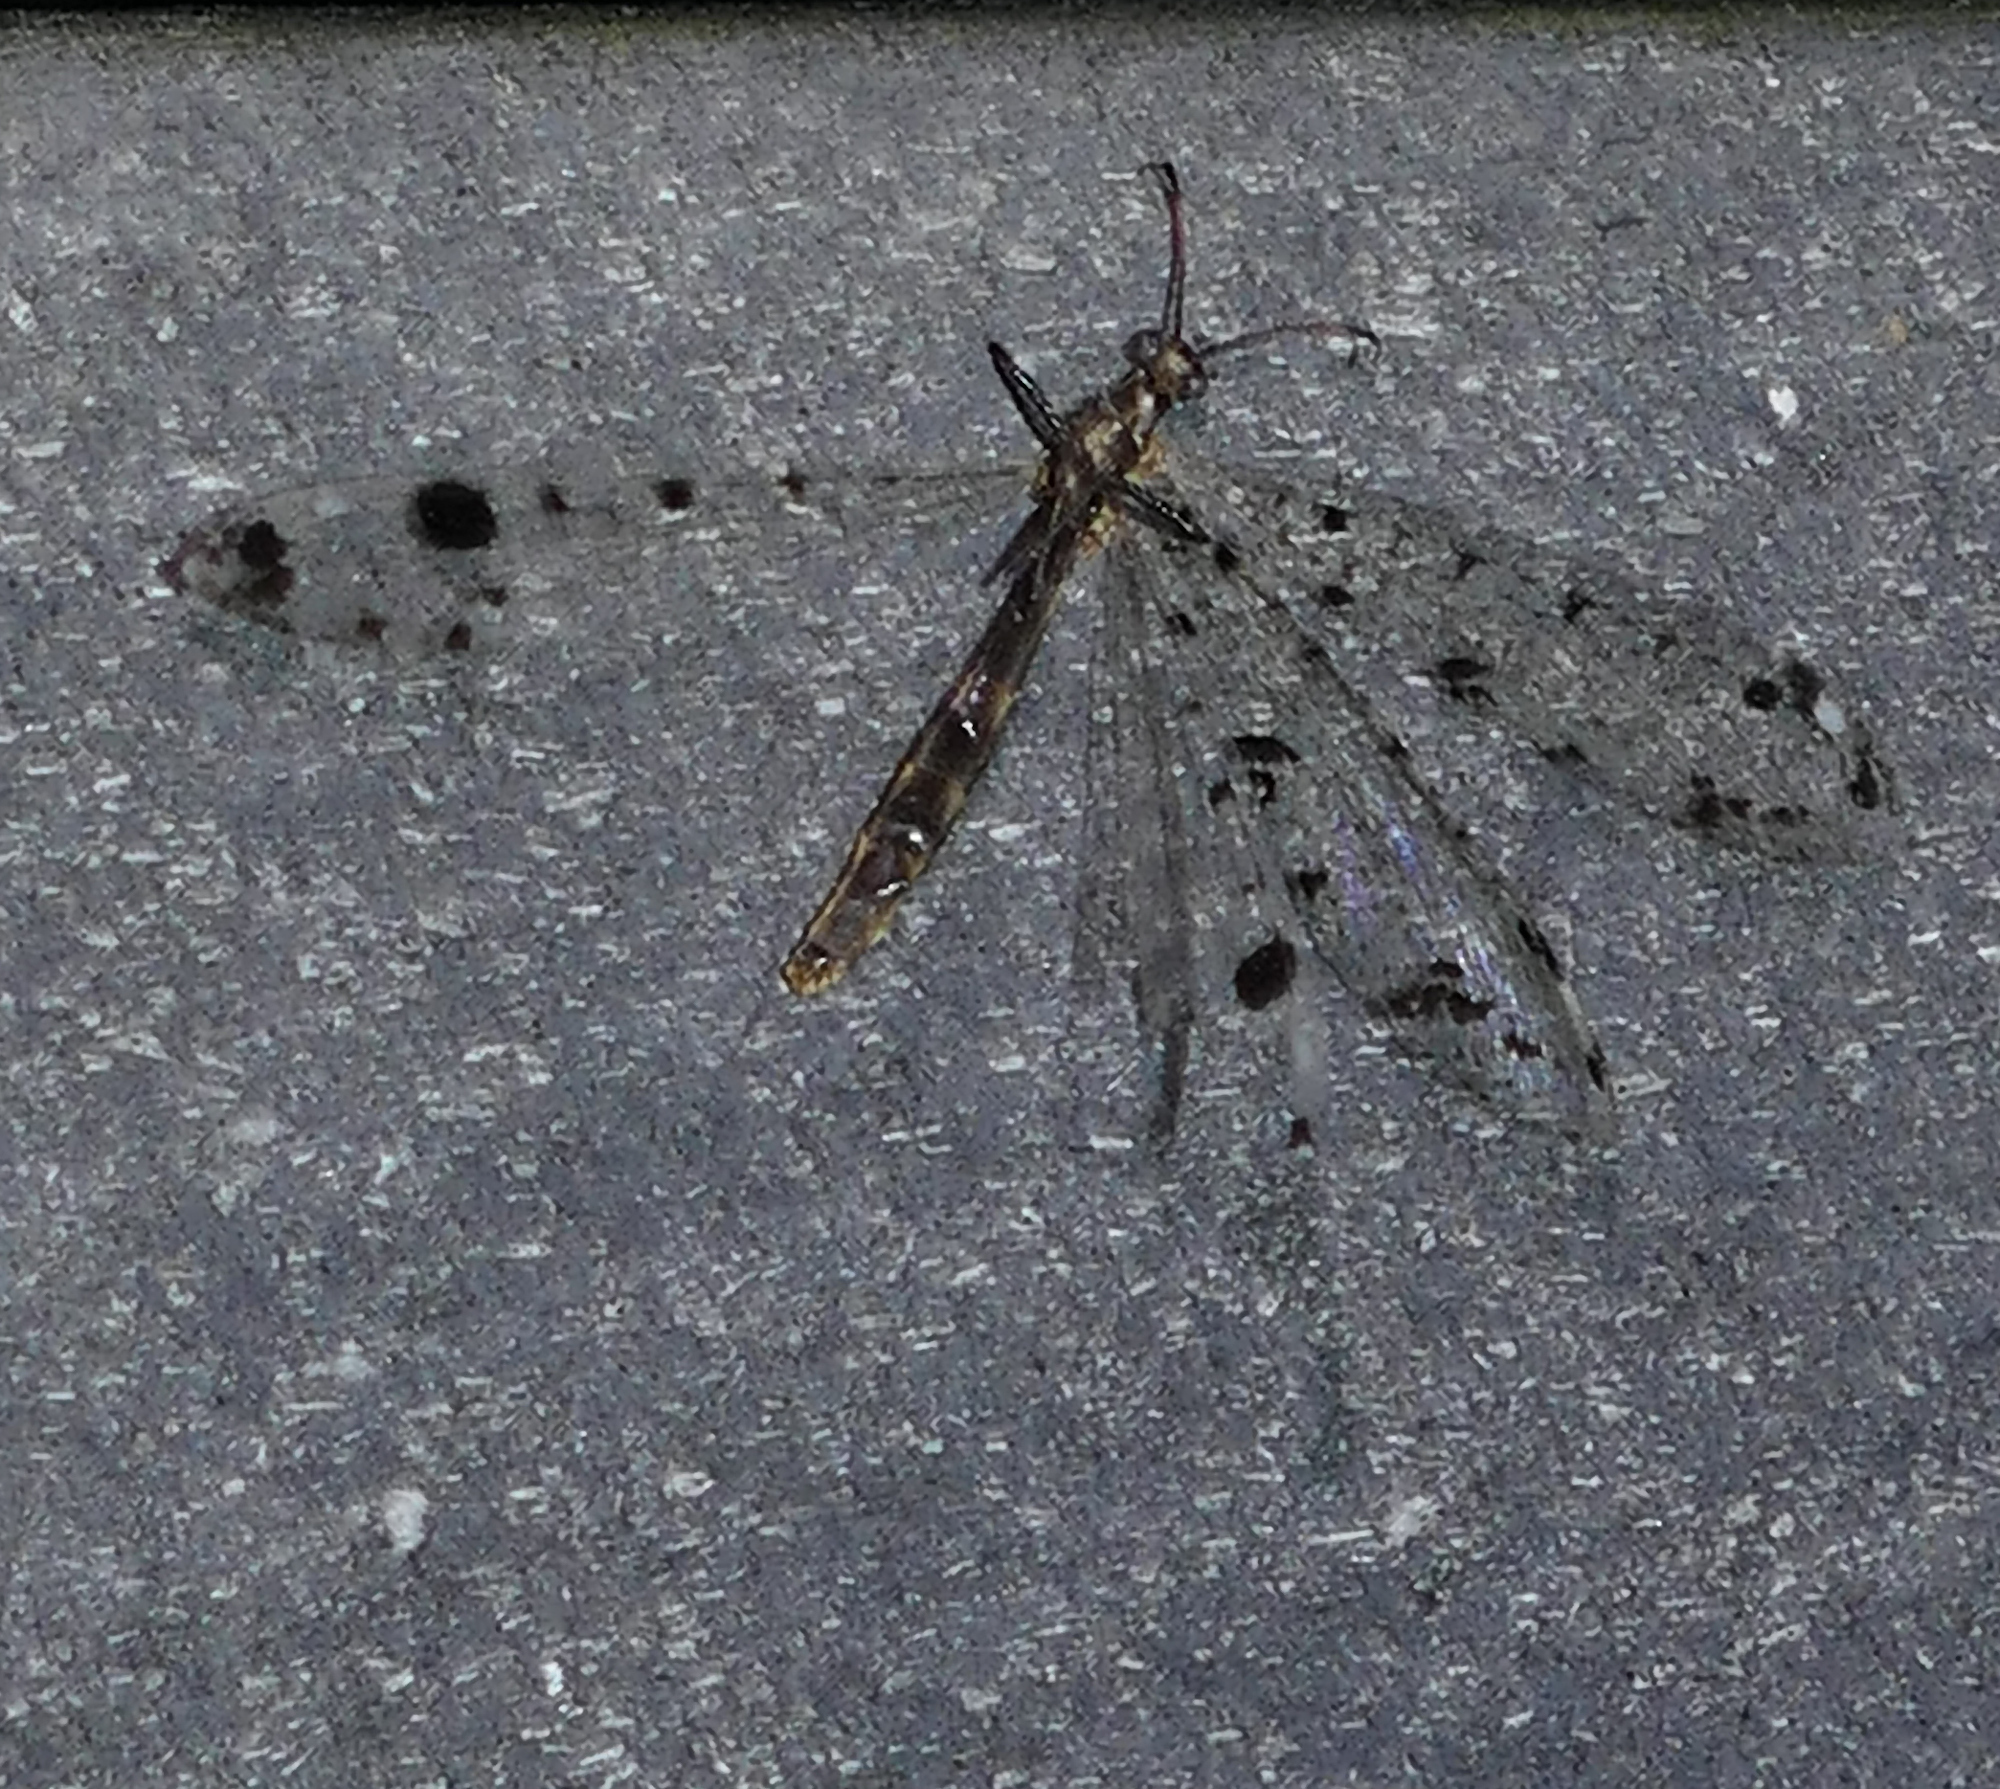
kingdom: Animalia
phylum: Arthropoda
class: Insecta
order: Neuroptera
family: Myrmeleontidae
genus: Dendroleon
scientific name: Dendroleon obsoletus
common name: Eastern spotted-winged antlion
